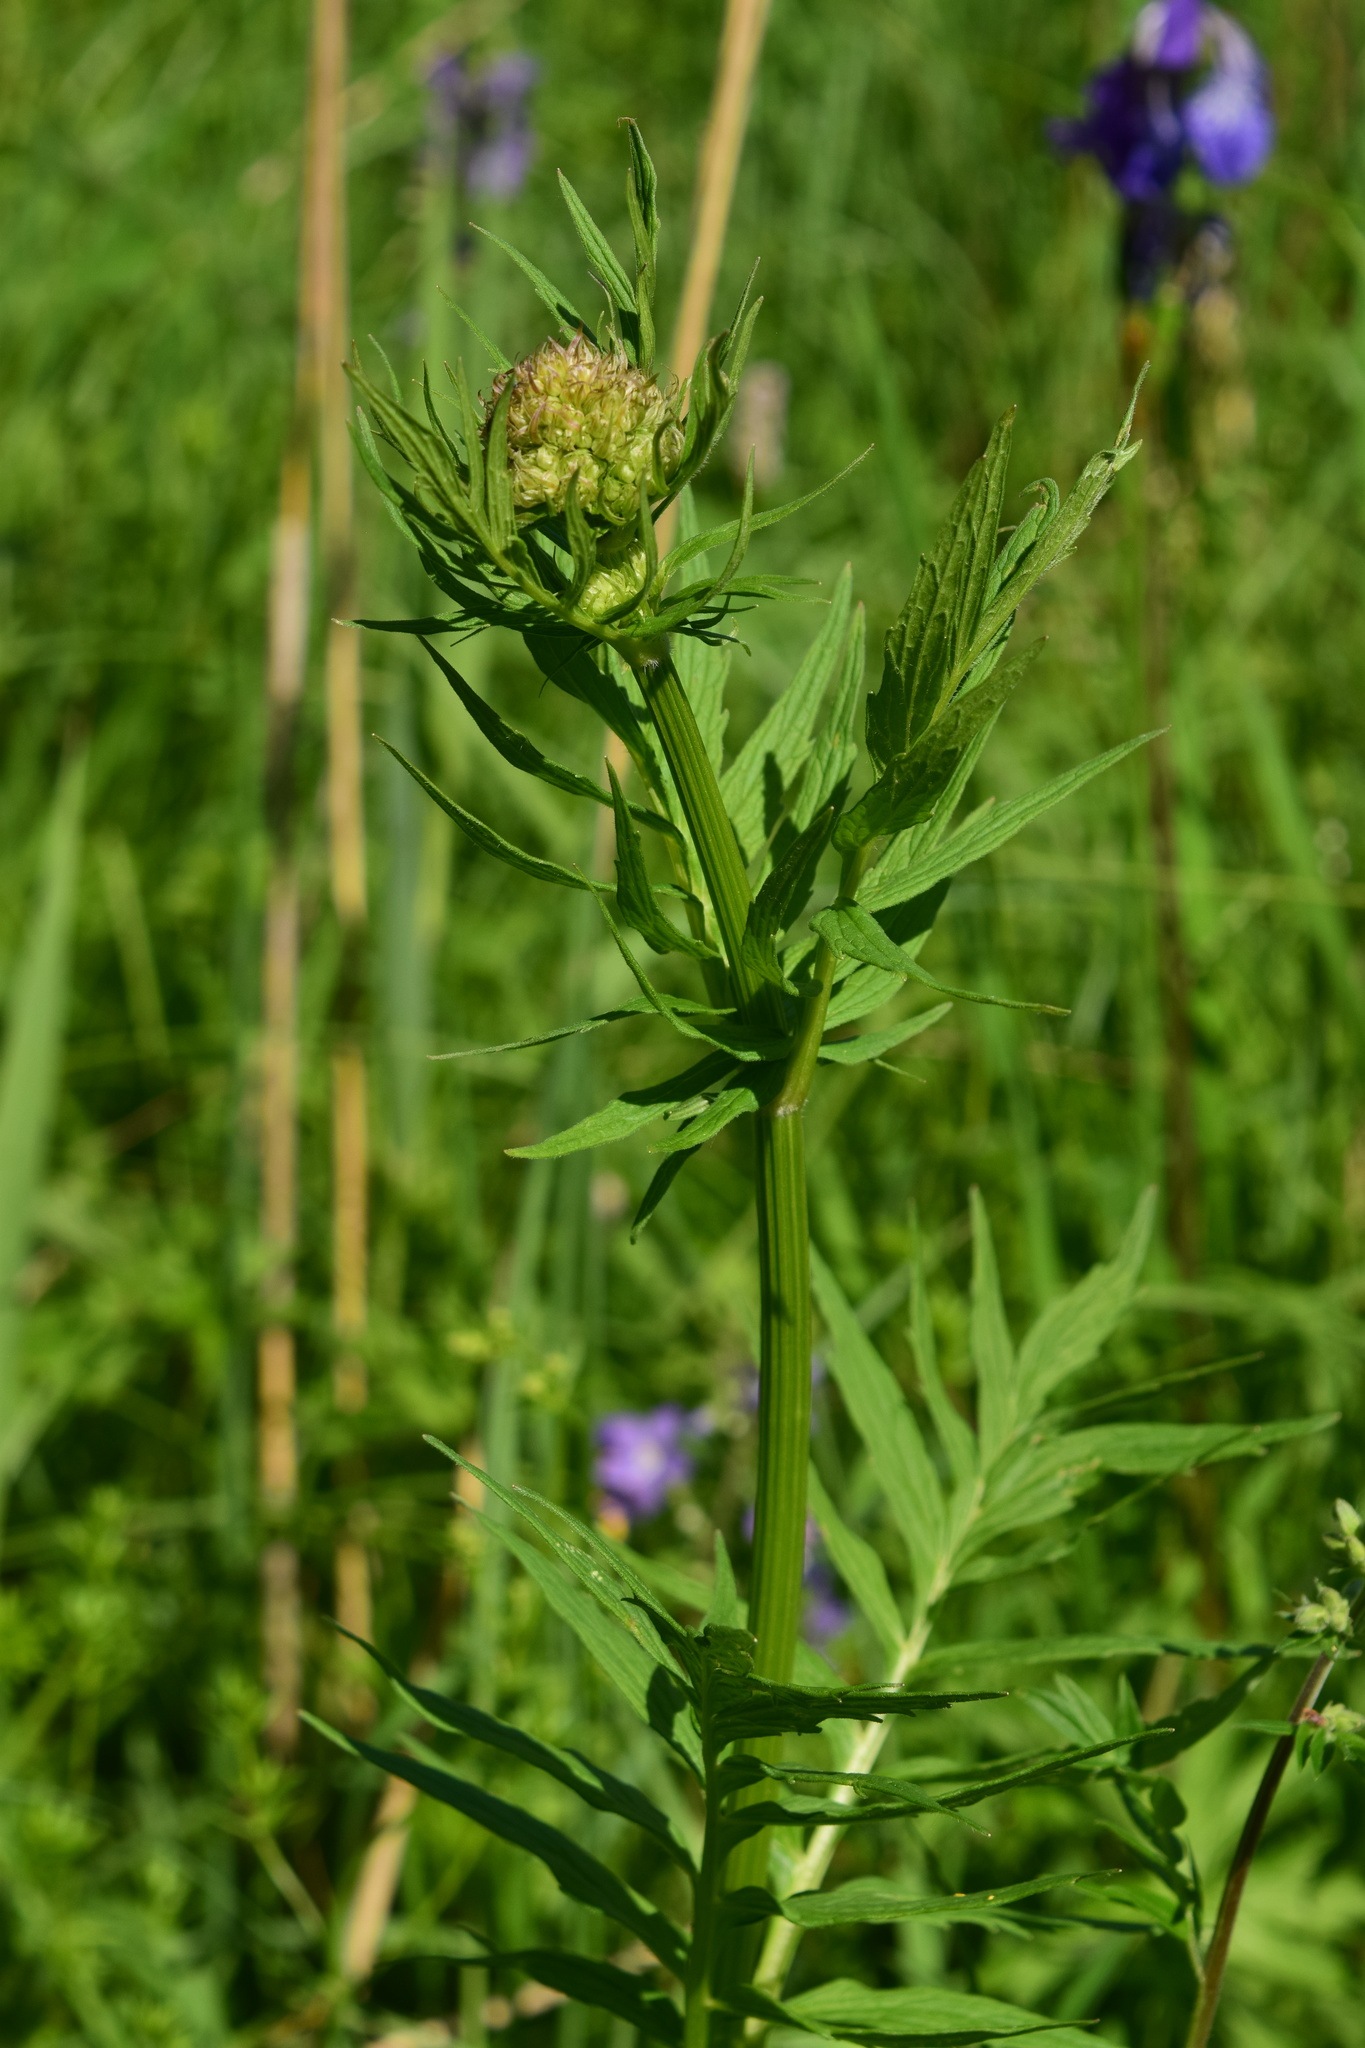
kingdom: Plantae
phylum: Tracheophyta
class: Magnoliopsida
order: Dipsacales
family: Caprifoliaceae
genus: Valeriana
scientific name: Valeriana officinalis
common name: Common valerian
